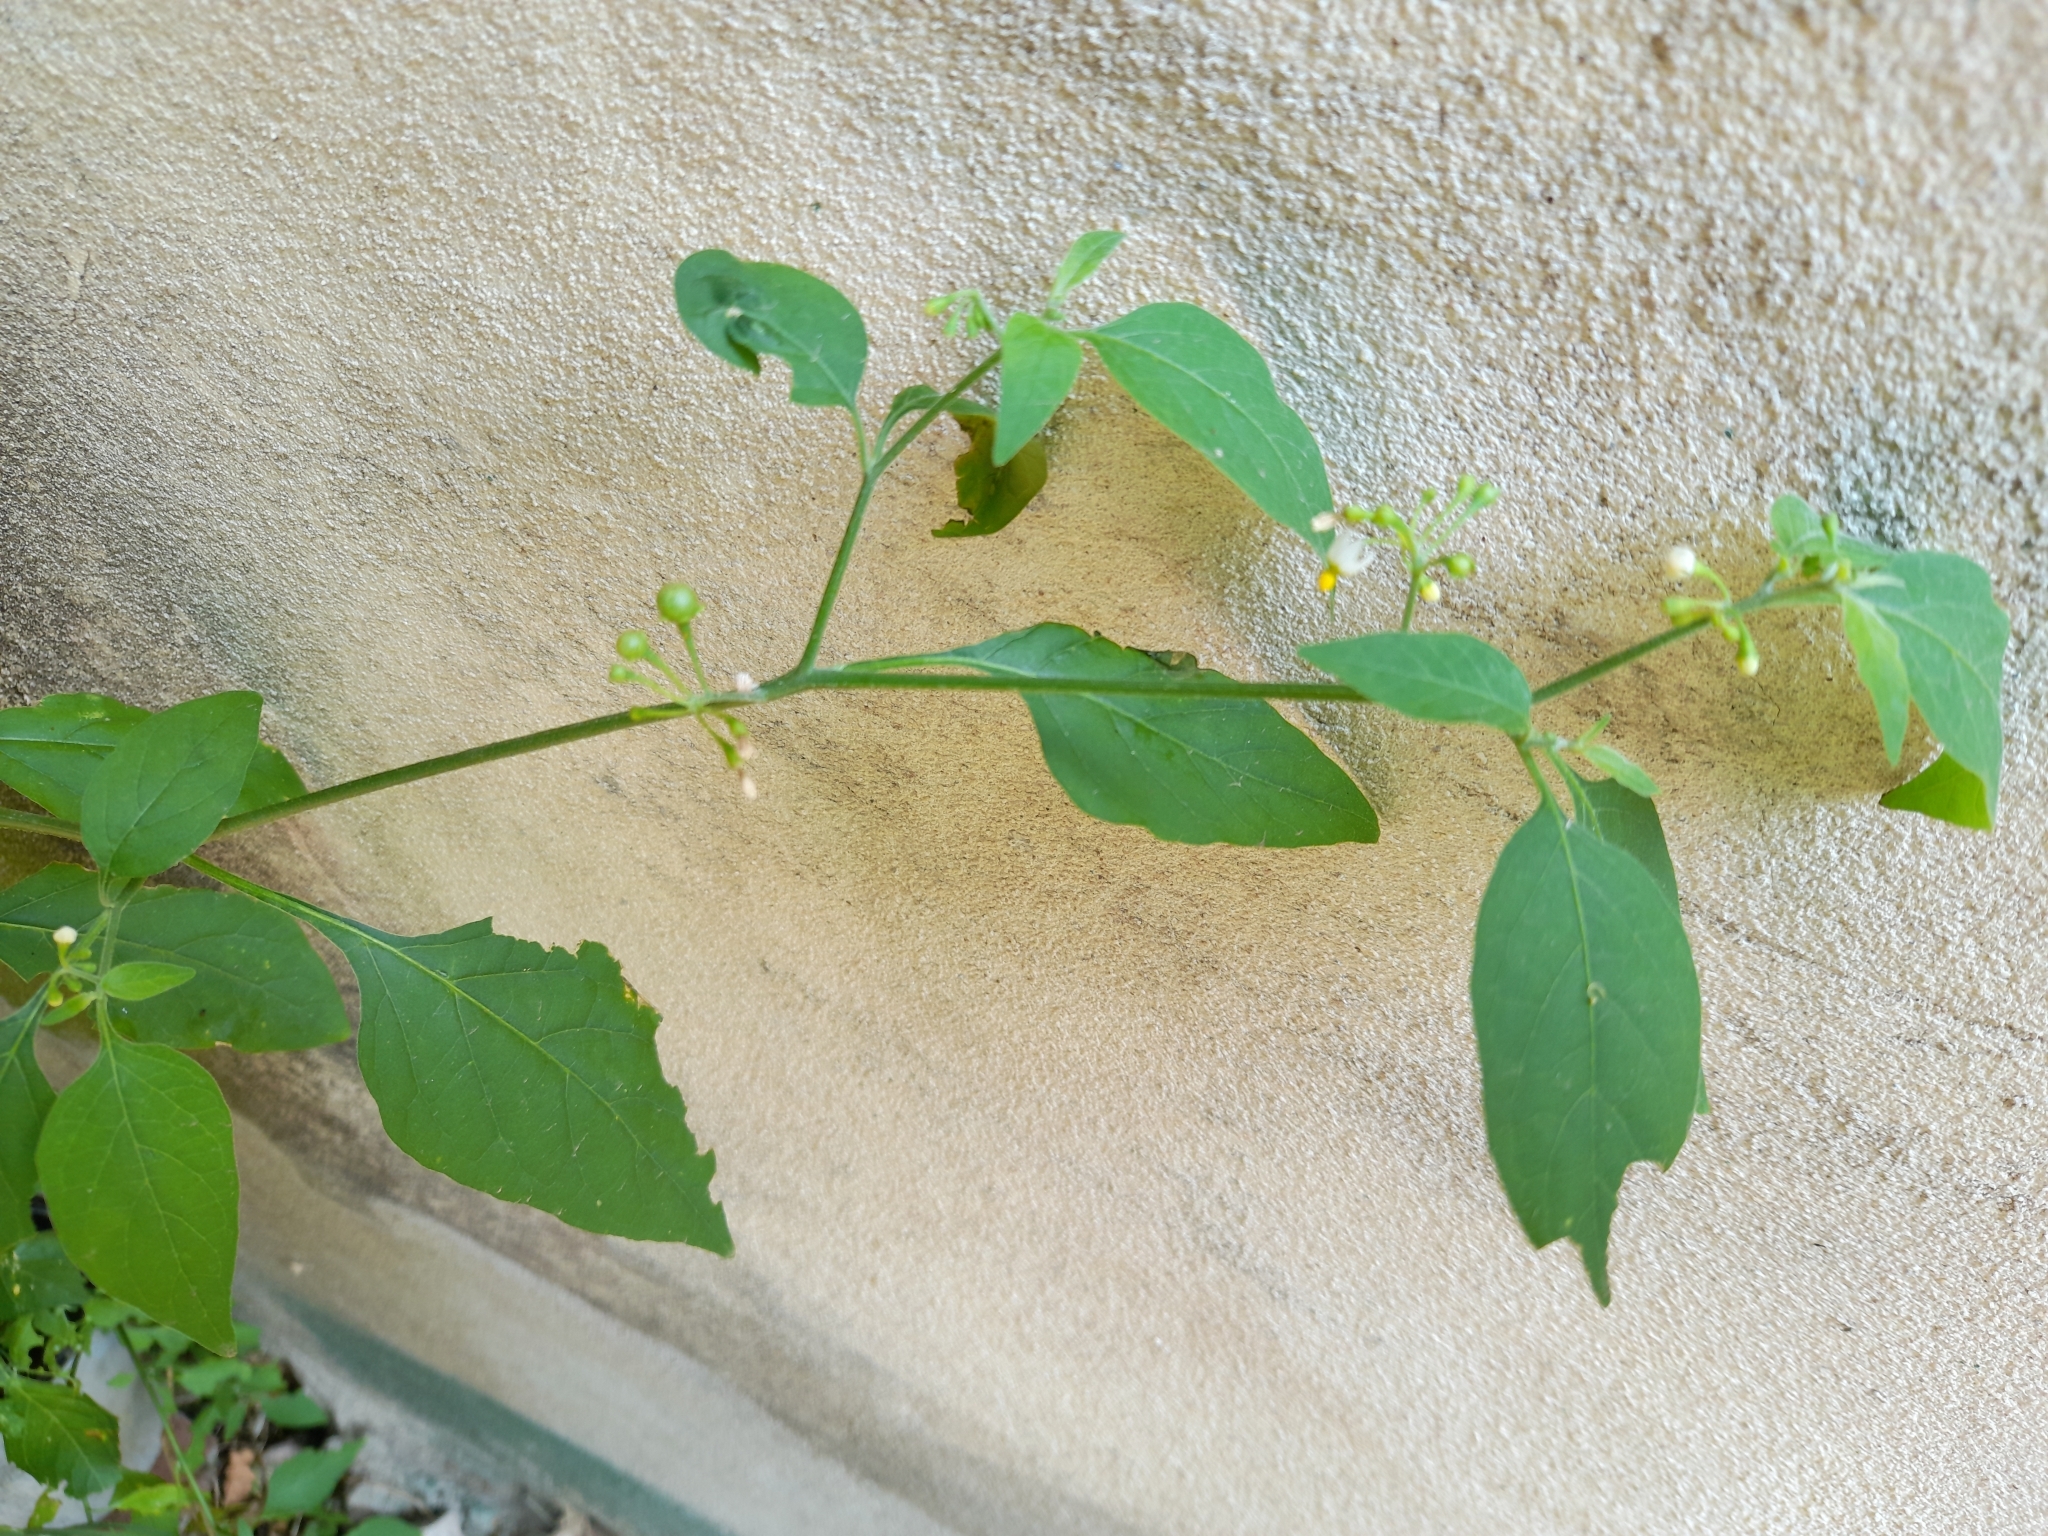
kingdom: Plantae
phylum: Tracheophyta
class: Magnoliopsida
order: Solanales
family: Solanaceae
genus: Solanum
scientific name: Solanum americanum
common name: American black nightshade
